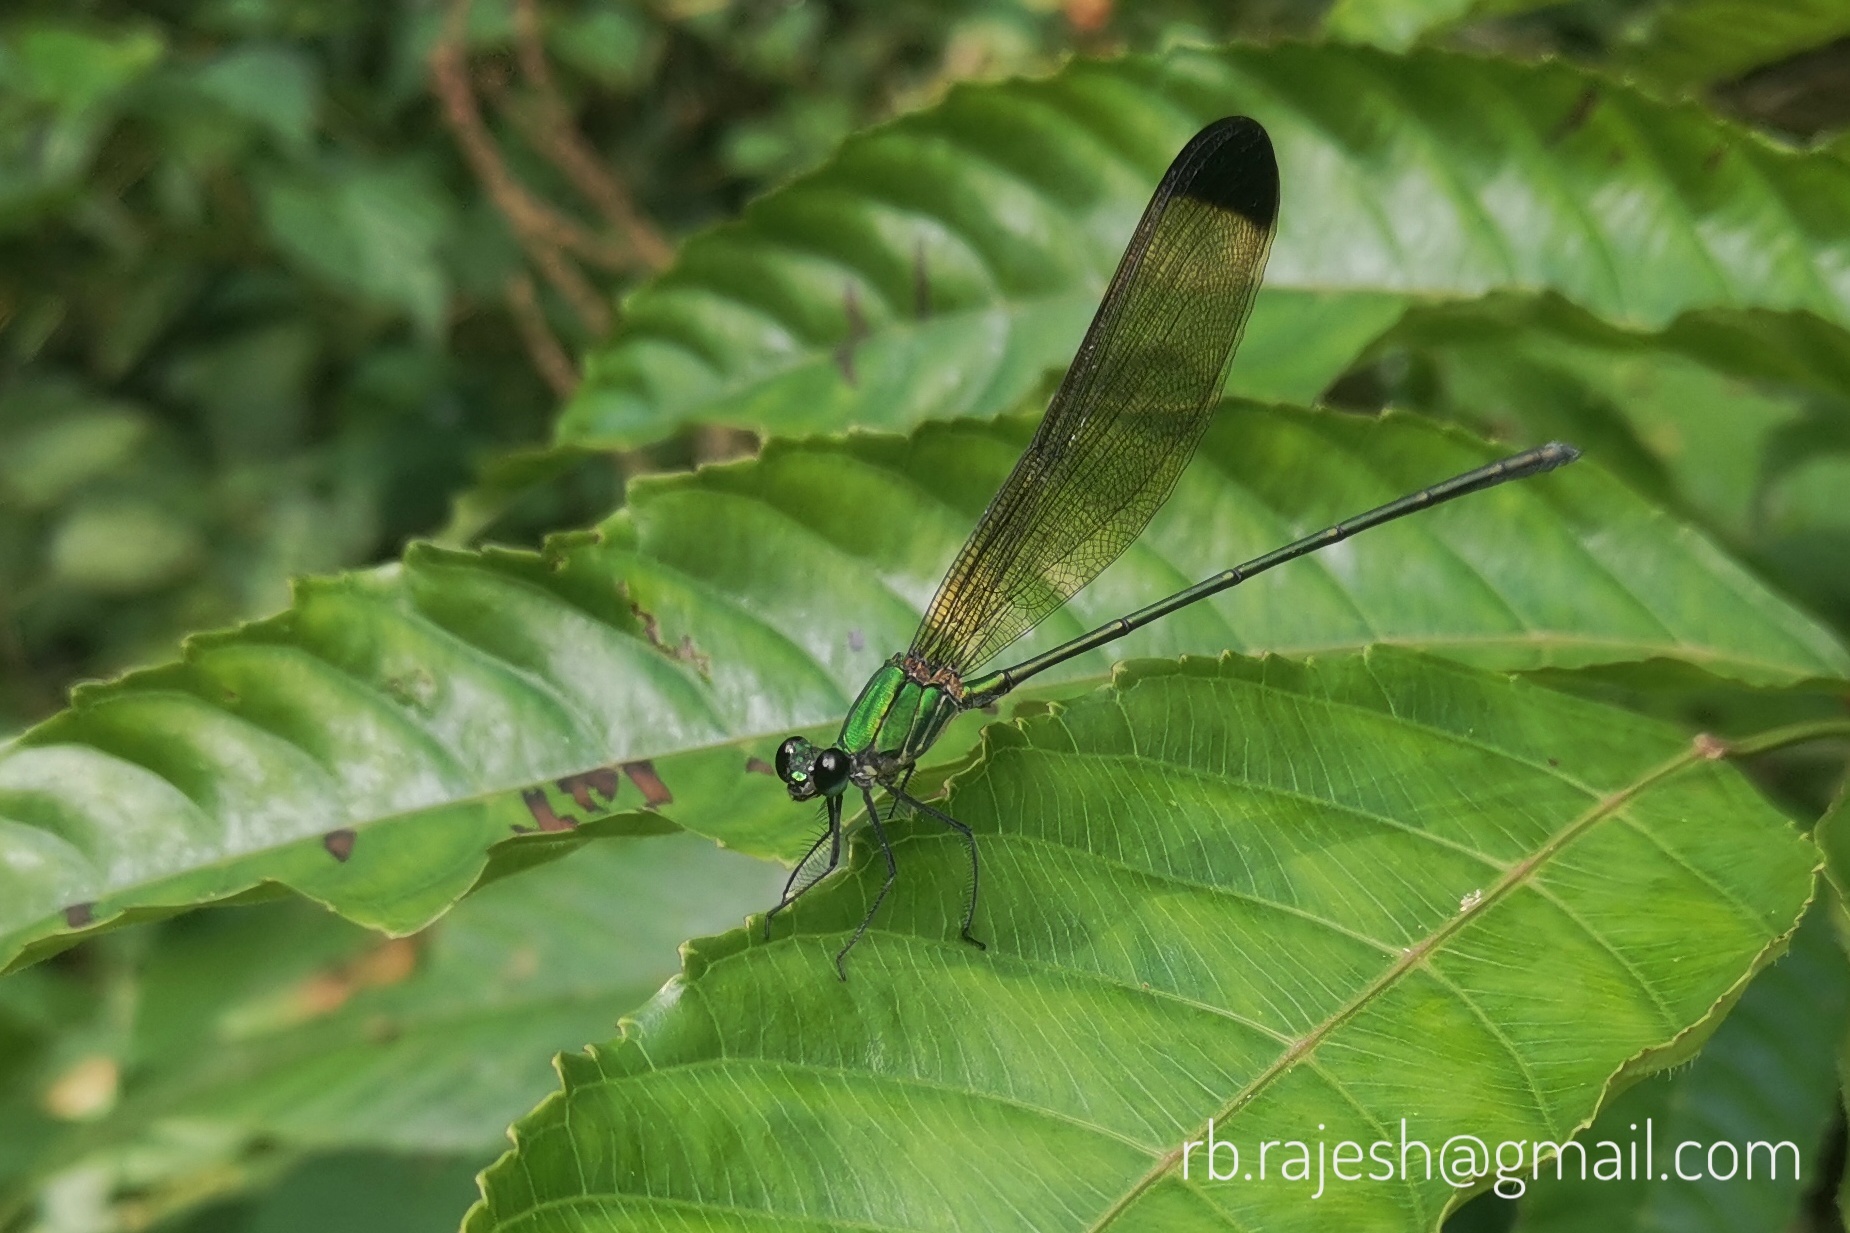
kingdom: Animalia
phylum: Arthropoda
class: Insecta
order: Odonata
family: Calopterygidae
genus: Vestalis
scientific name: Vestalis apicalis
